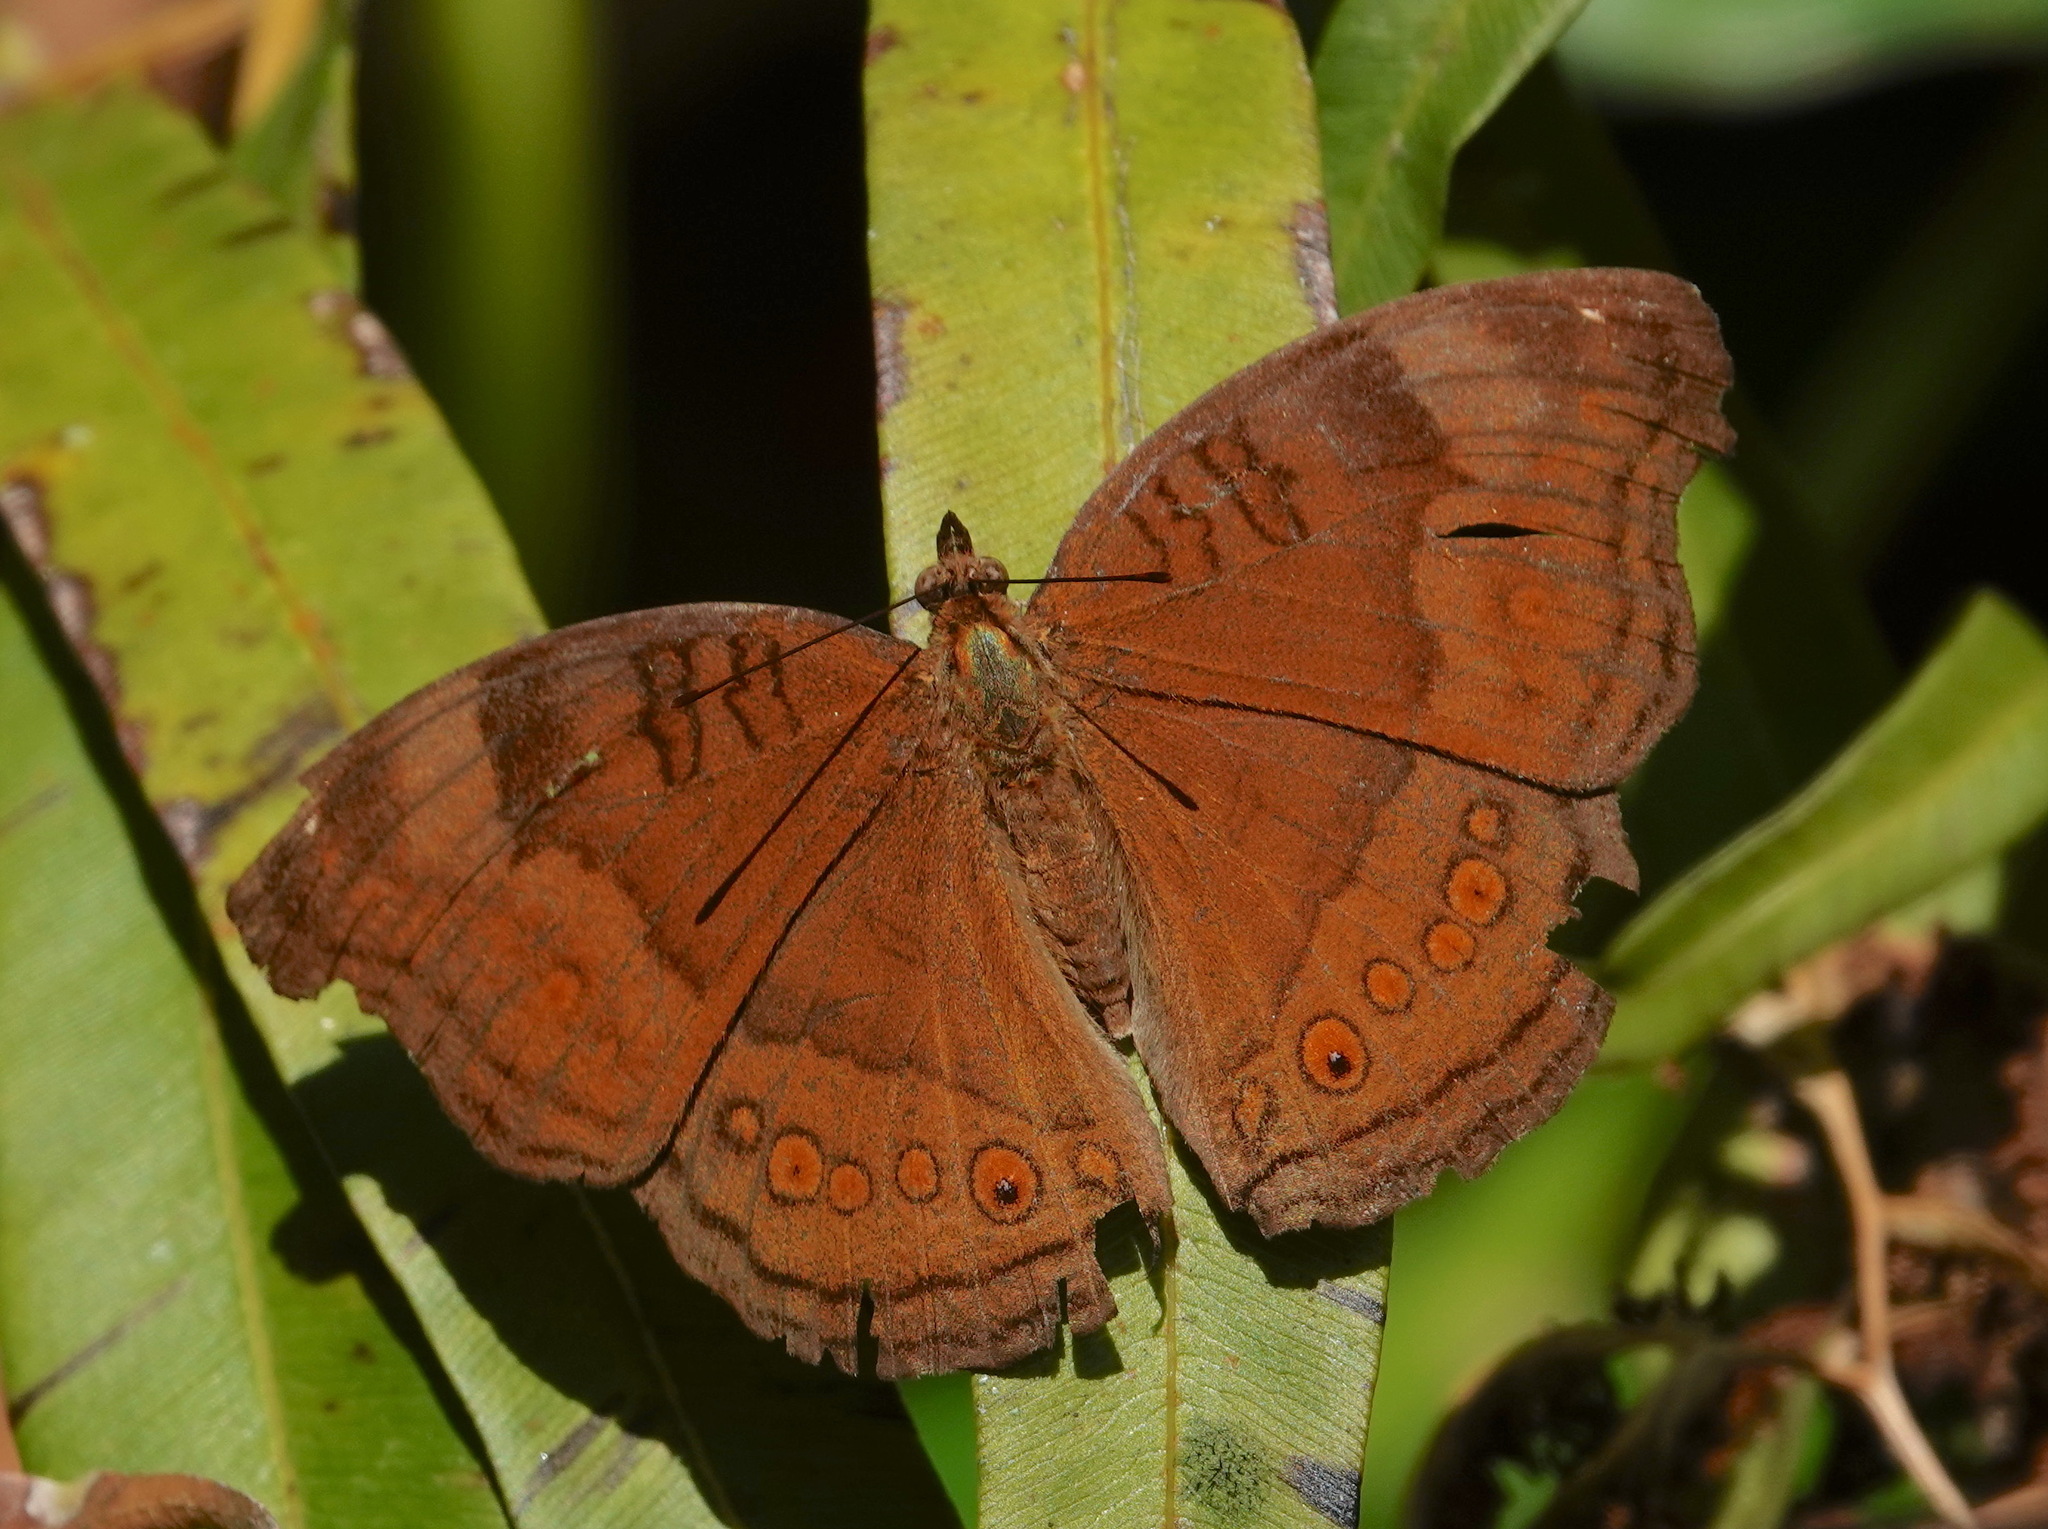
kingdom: Animalia
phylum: Arthropoda
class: Insecta
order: Lepidoptera
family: Nymphalidae
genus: Junonia
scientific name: Junonia hedonia
